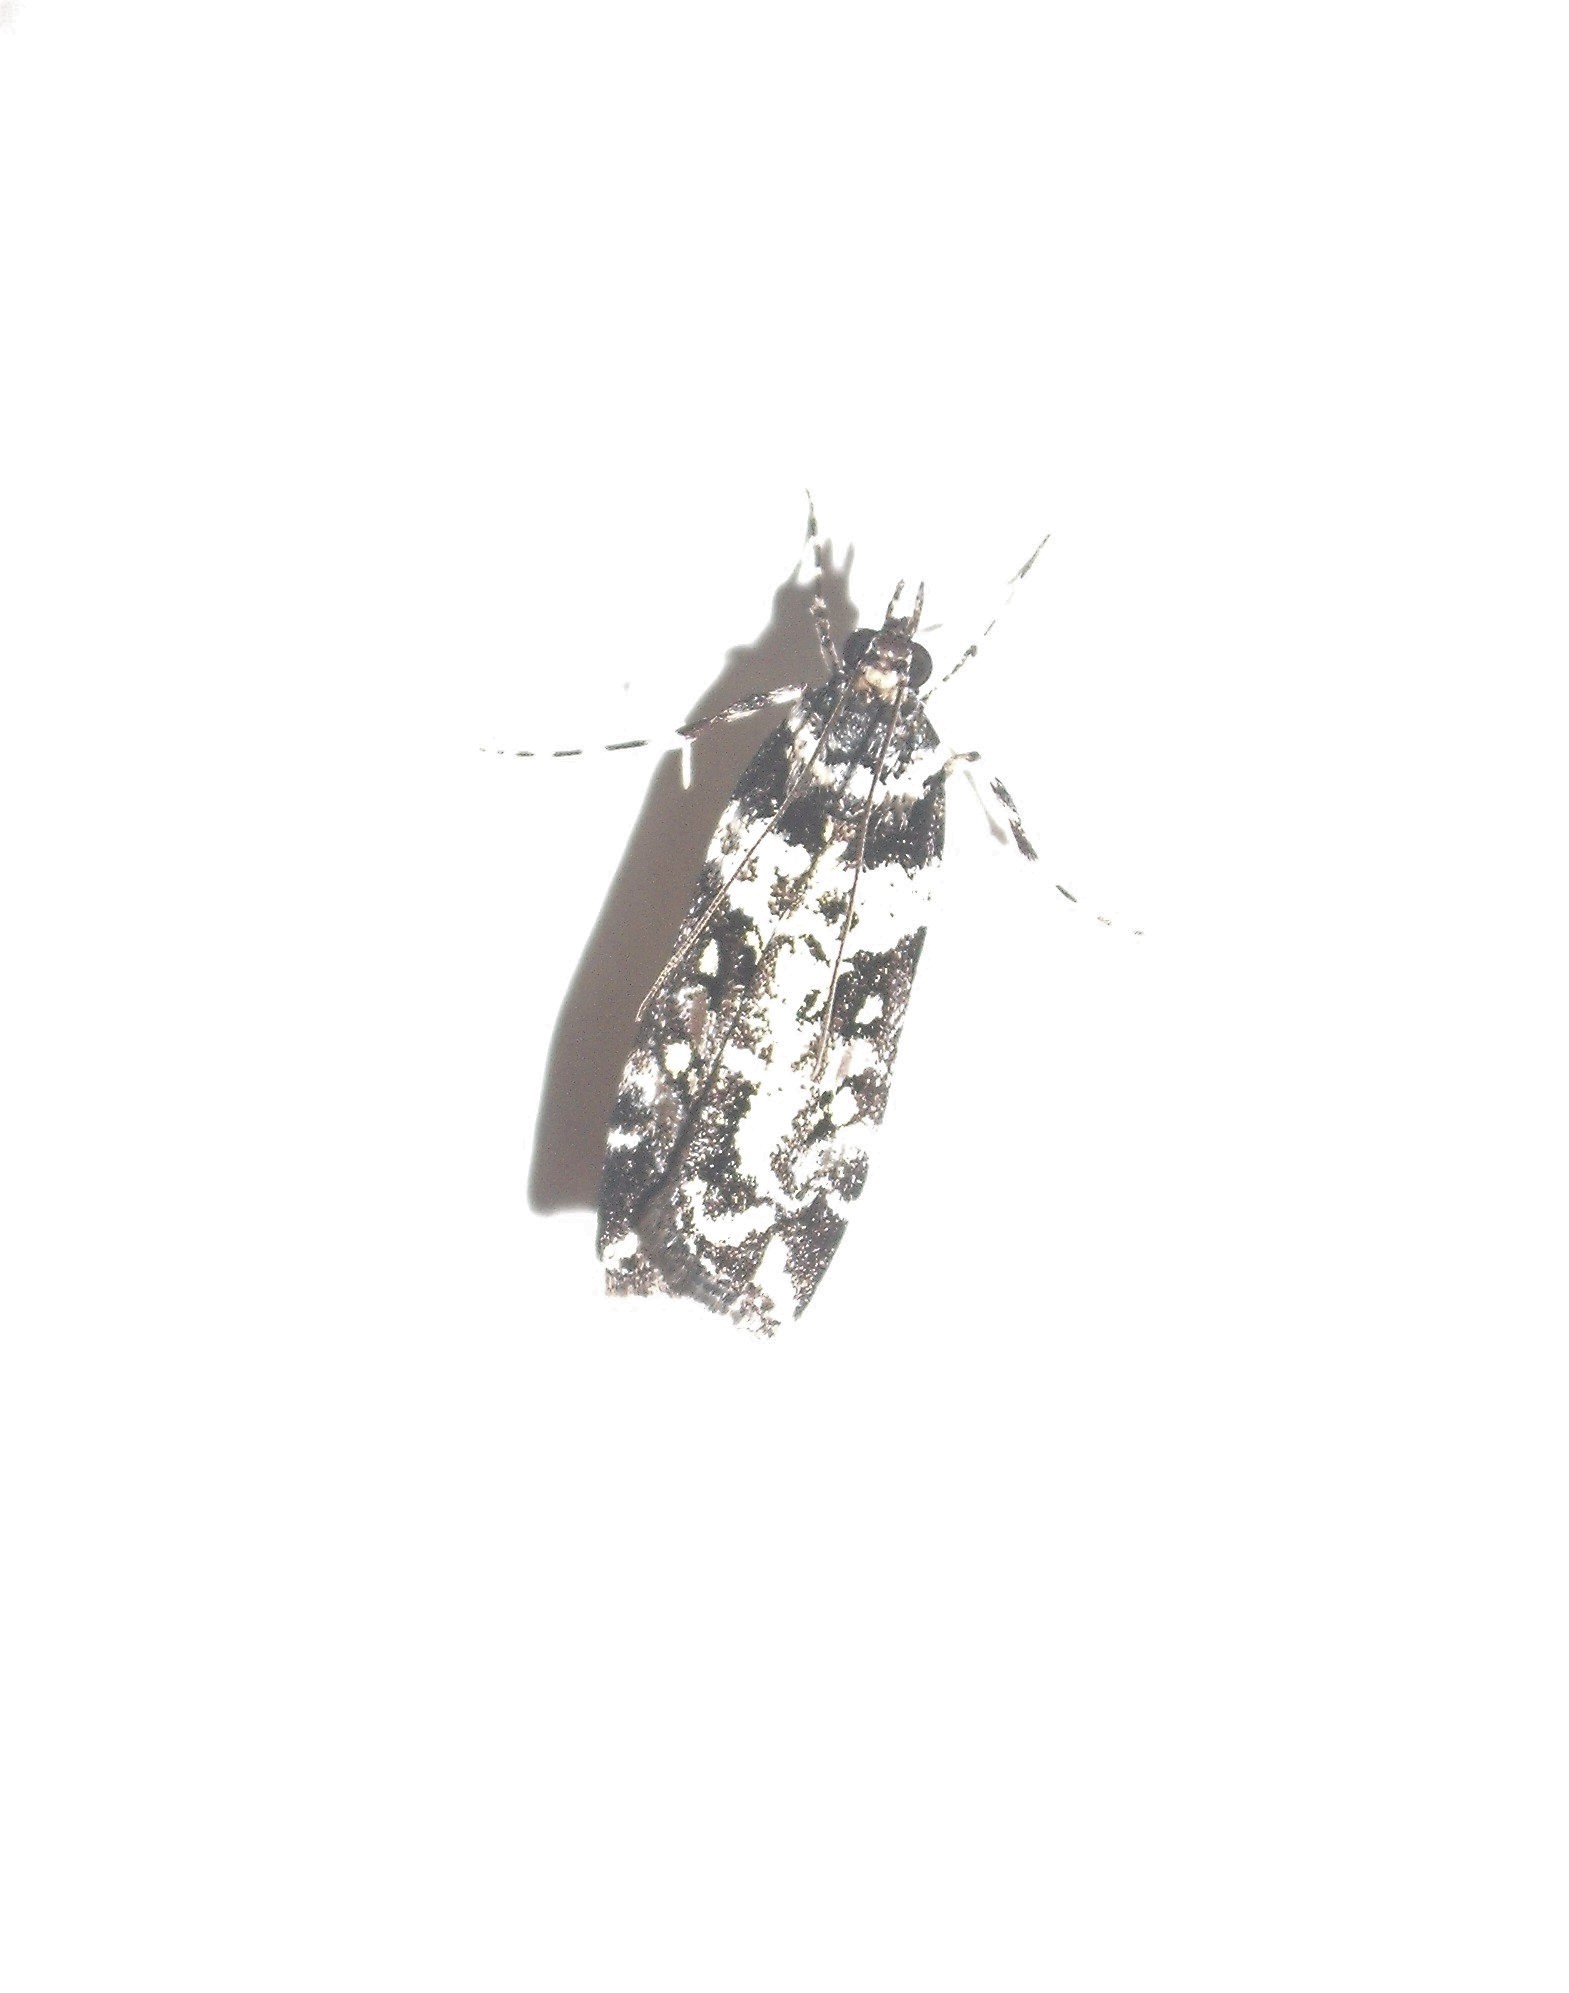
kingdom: Animalia
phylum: Arthropoda
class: Insecta
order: Lepidoptera
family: Crambidae
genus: Eudonia
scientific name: Eudonia diphtheralis
